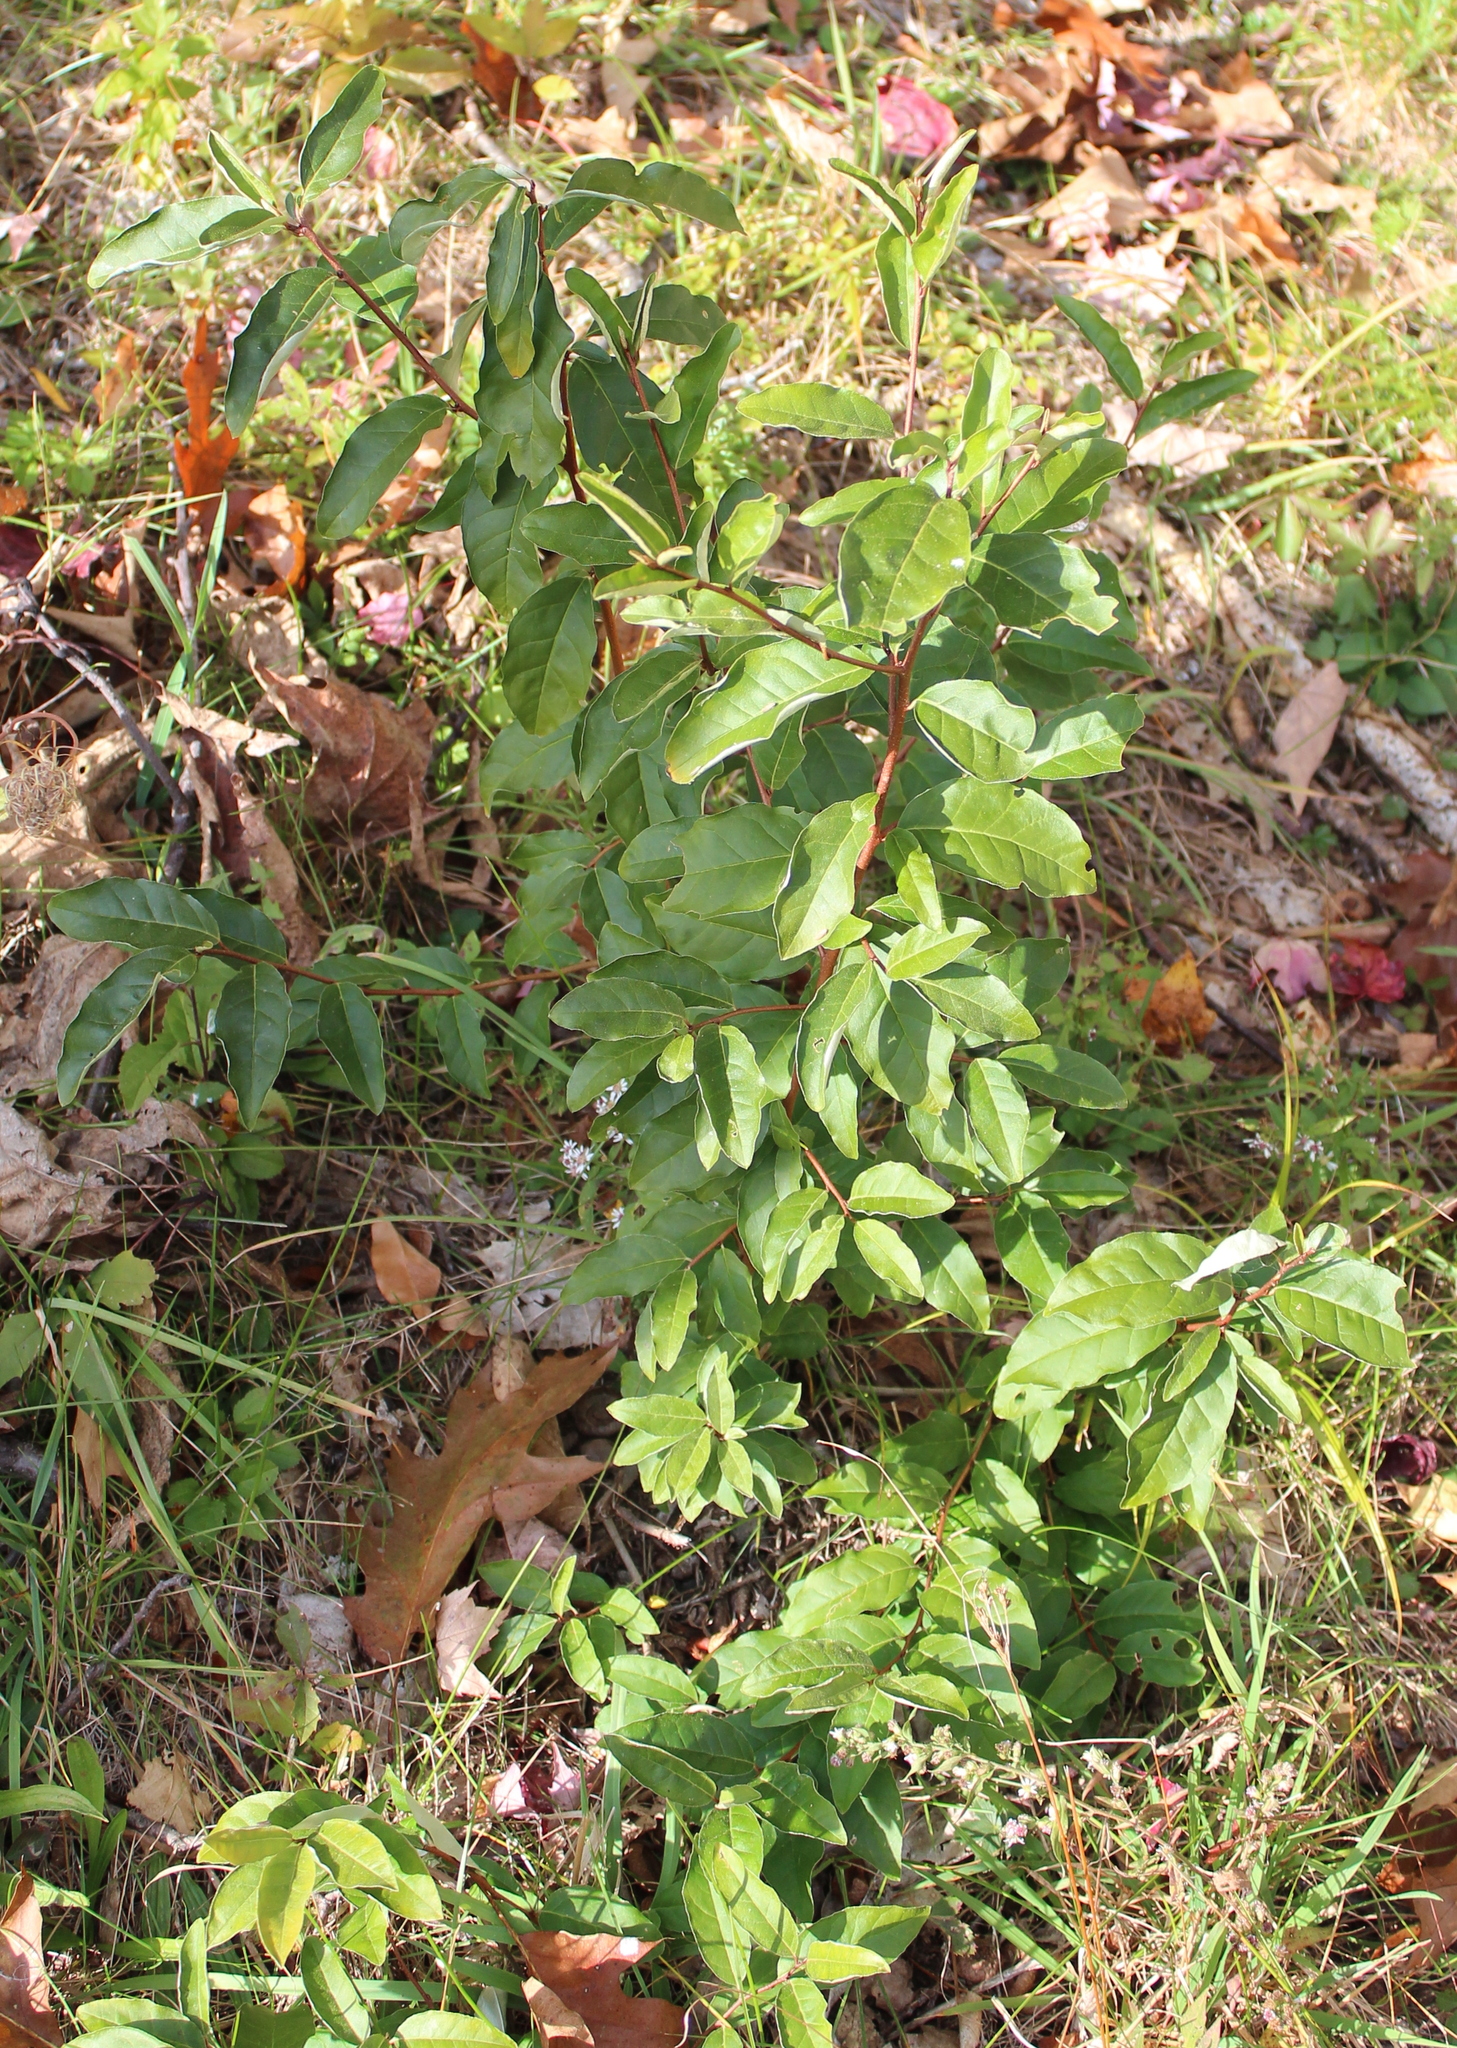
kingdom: Plantae
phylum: Tracheophyta
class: Magnoliopsida
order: Rosales
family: Elaeagnaceae
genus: Elaeagnus
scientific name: Elaeagnus umbellata
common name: Autumn olive
